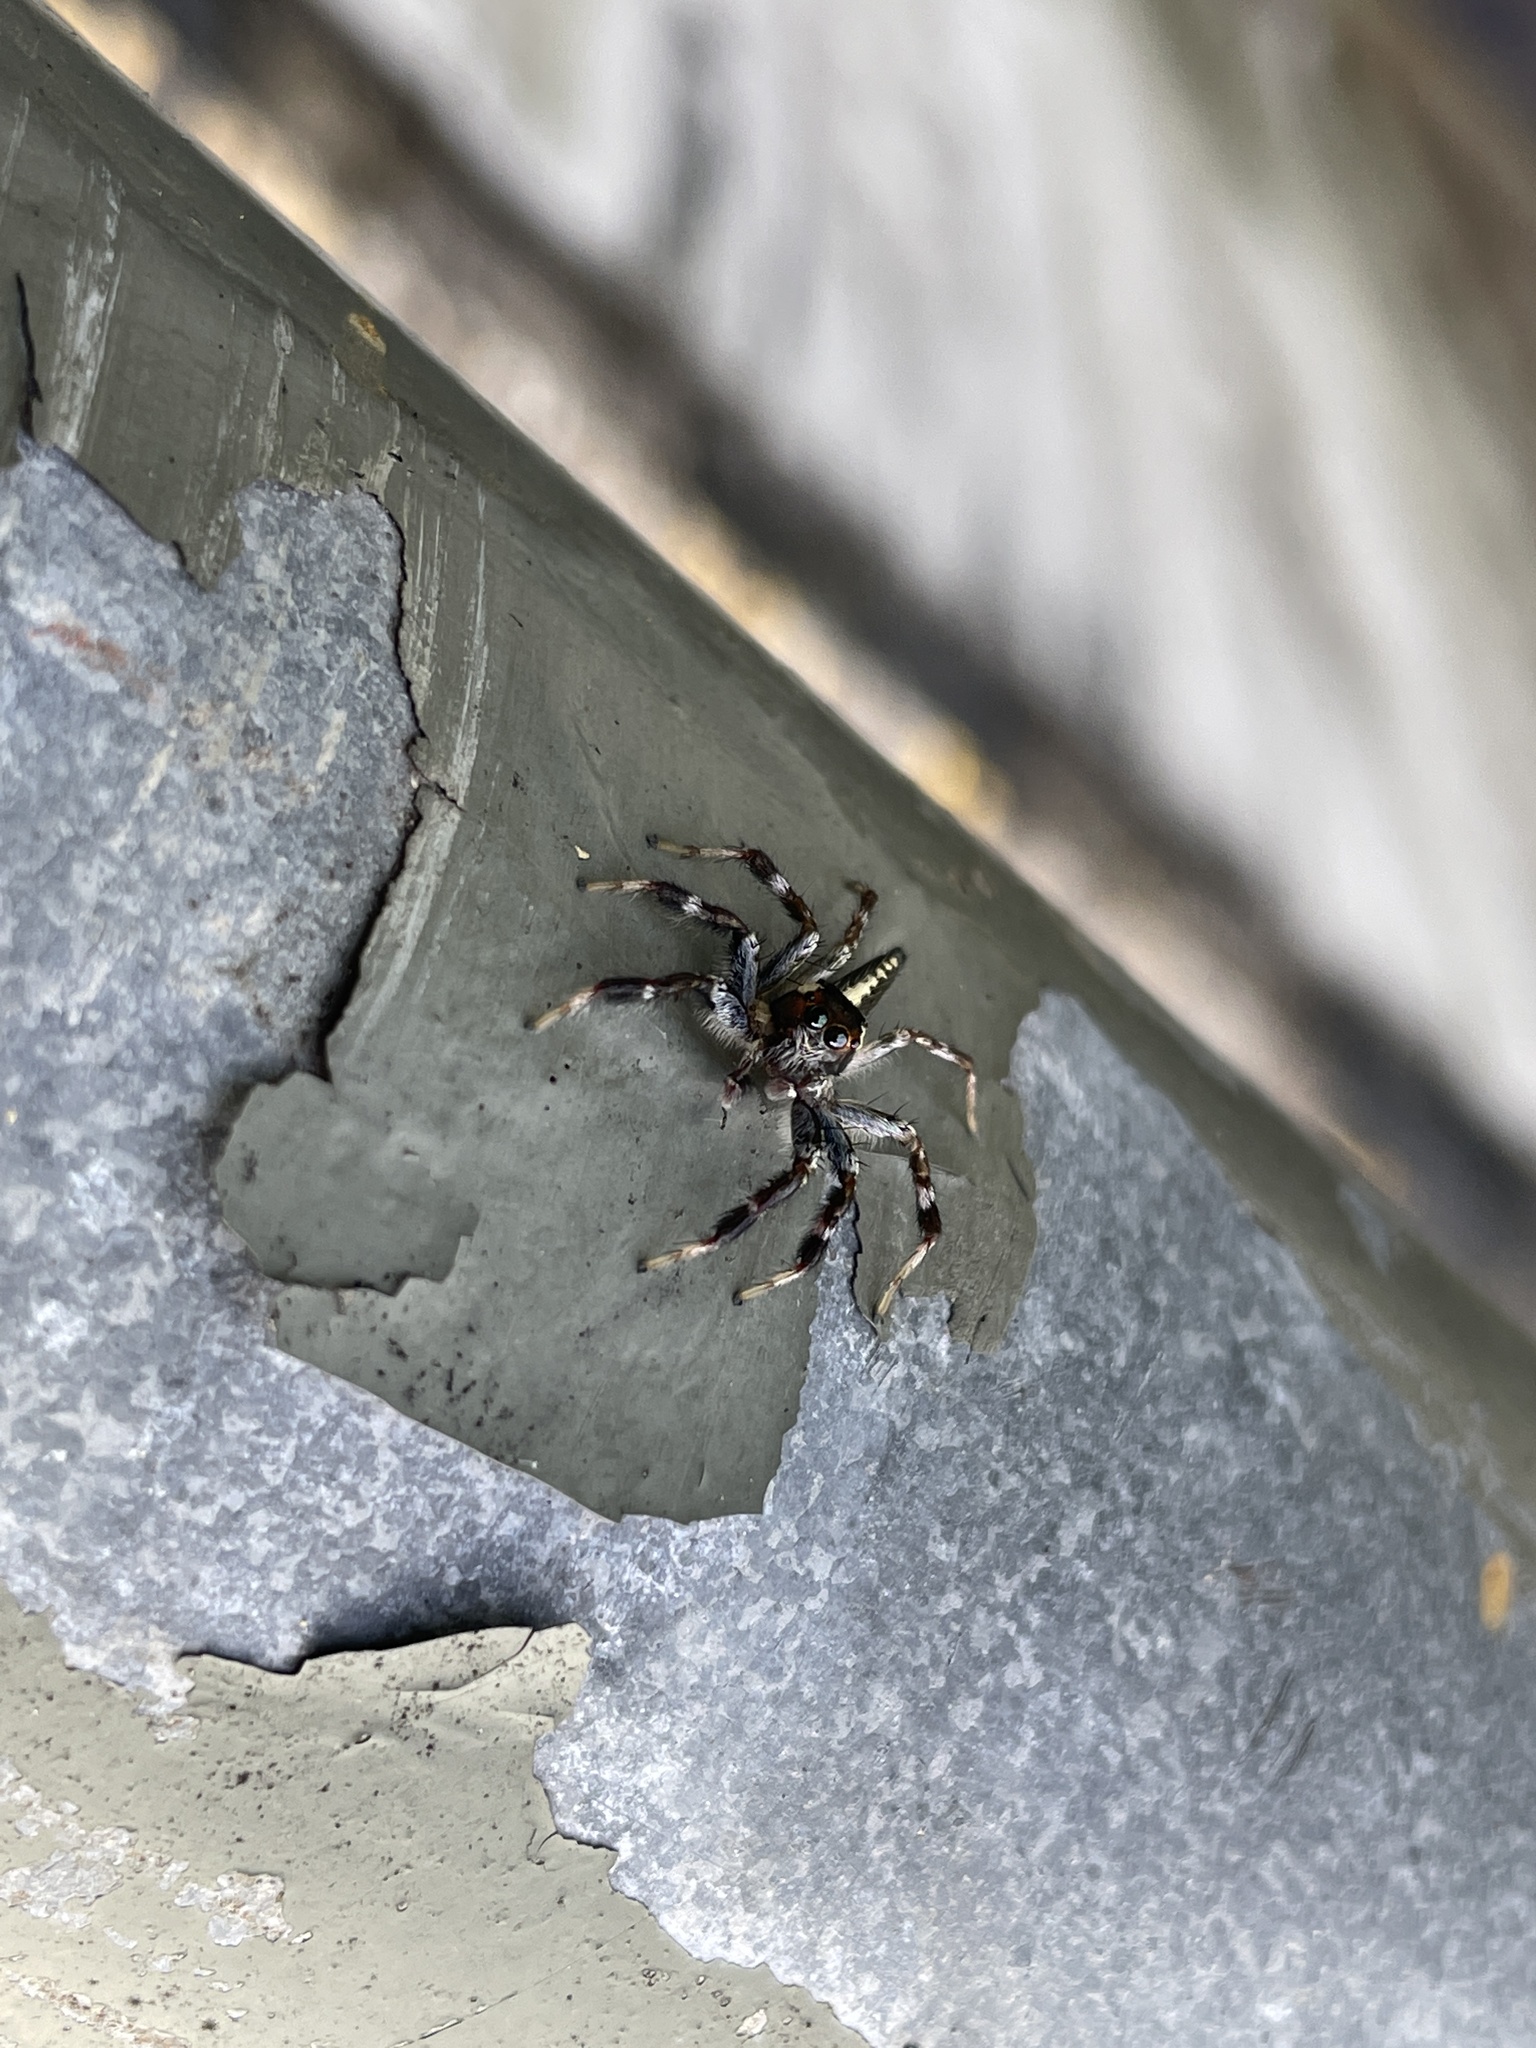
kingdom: Animalia
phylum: Arthropoda
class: Arachnida
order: Araneae
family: Salticidae
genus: Telamonia
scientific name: Telamonia caprina
